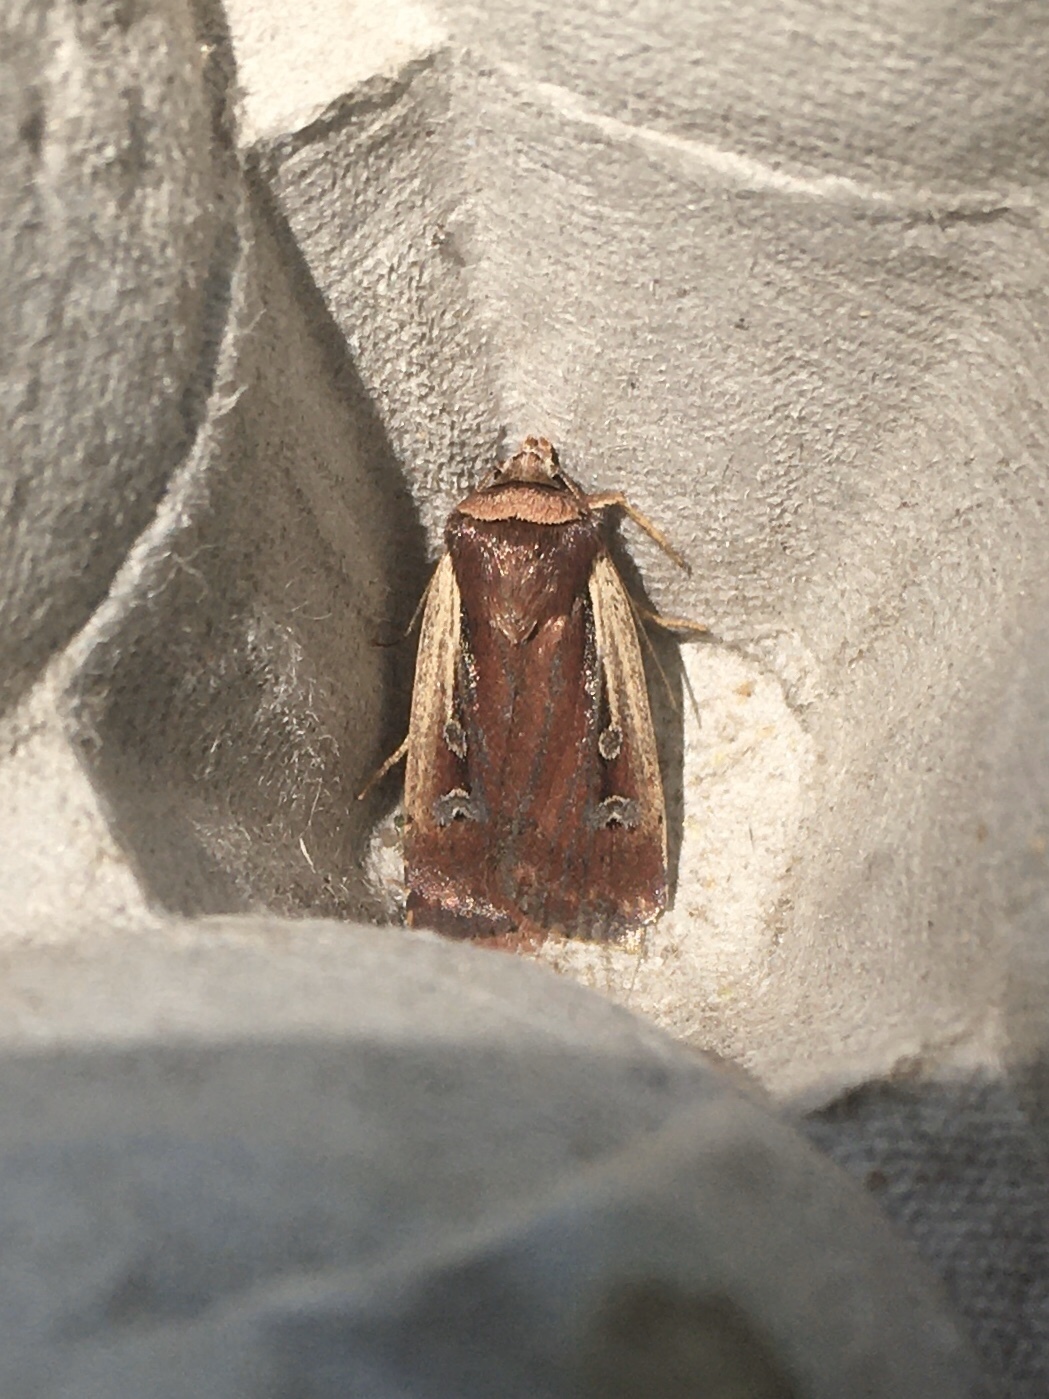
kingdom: Animalia
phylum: Arthropoda
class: Insecta
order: Lepidoptera
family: Noctuidae
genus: Ochropleura
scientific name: Ochropleura implecta
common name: Flame-shouldered dart
